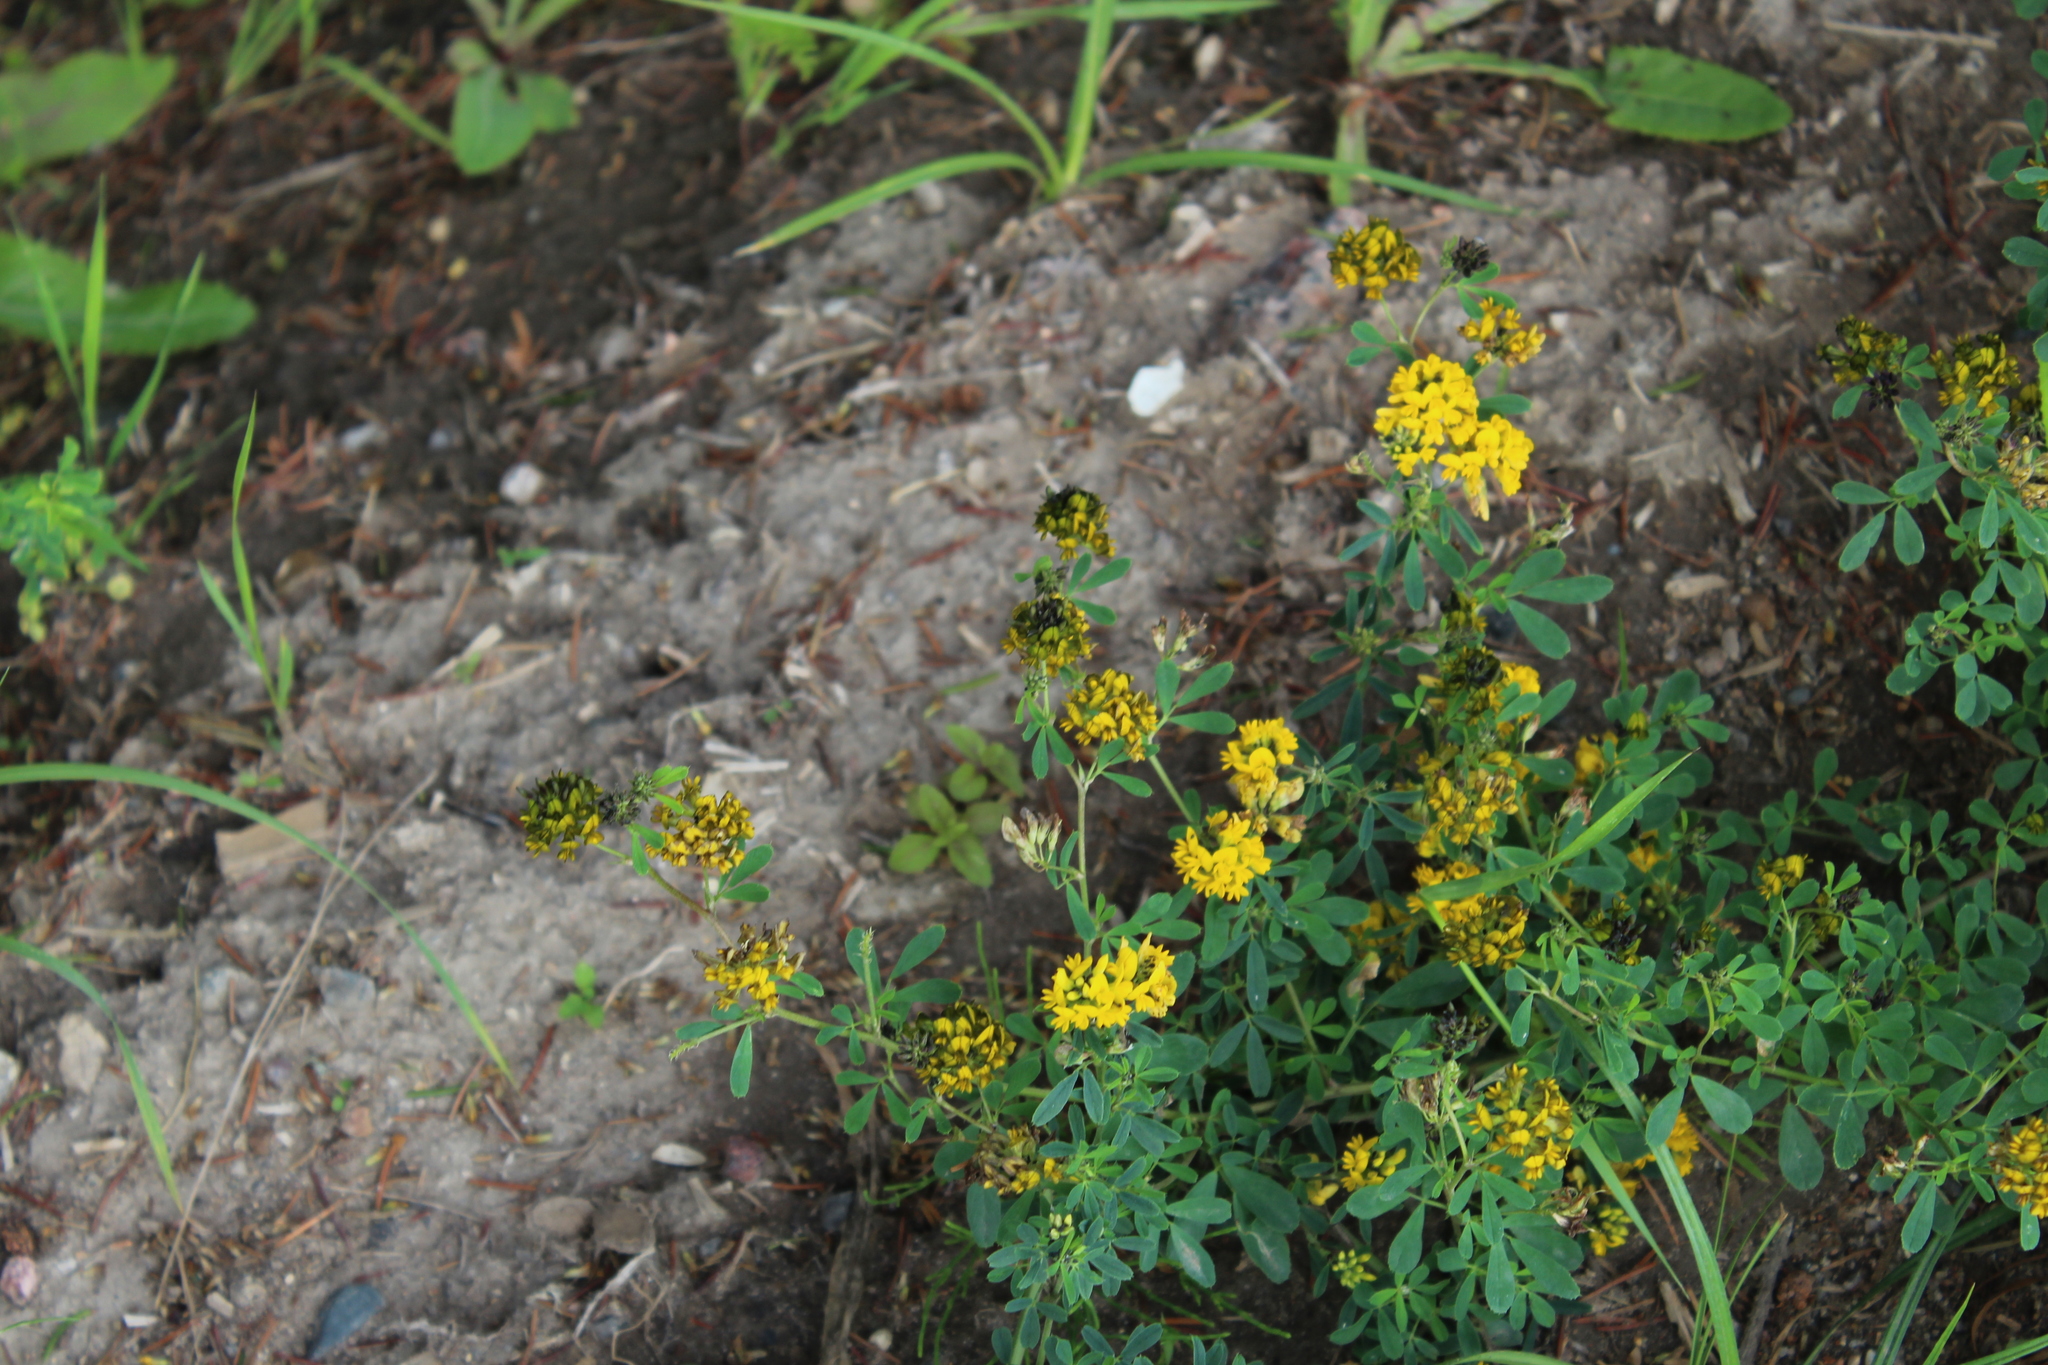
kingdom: Plantae
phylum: Tracheophyta
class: Magnoliopsida
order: Fabales
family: Fabaceae
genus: Medicago
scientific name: Medicago varia
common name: Sand lucerne
